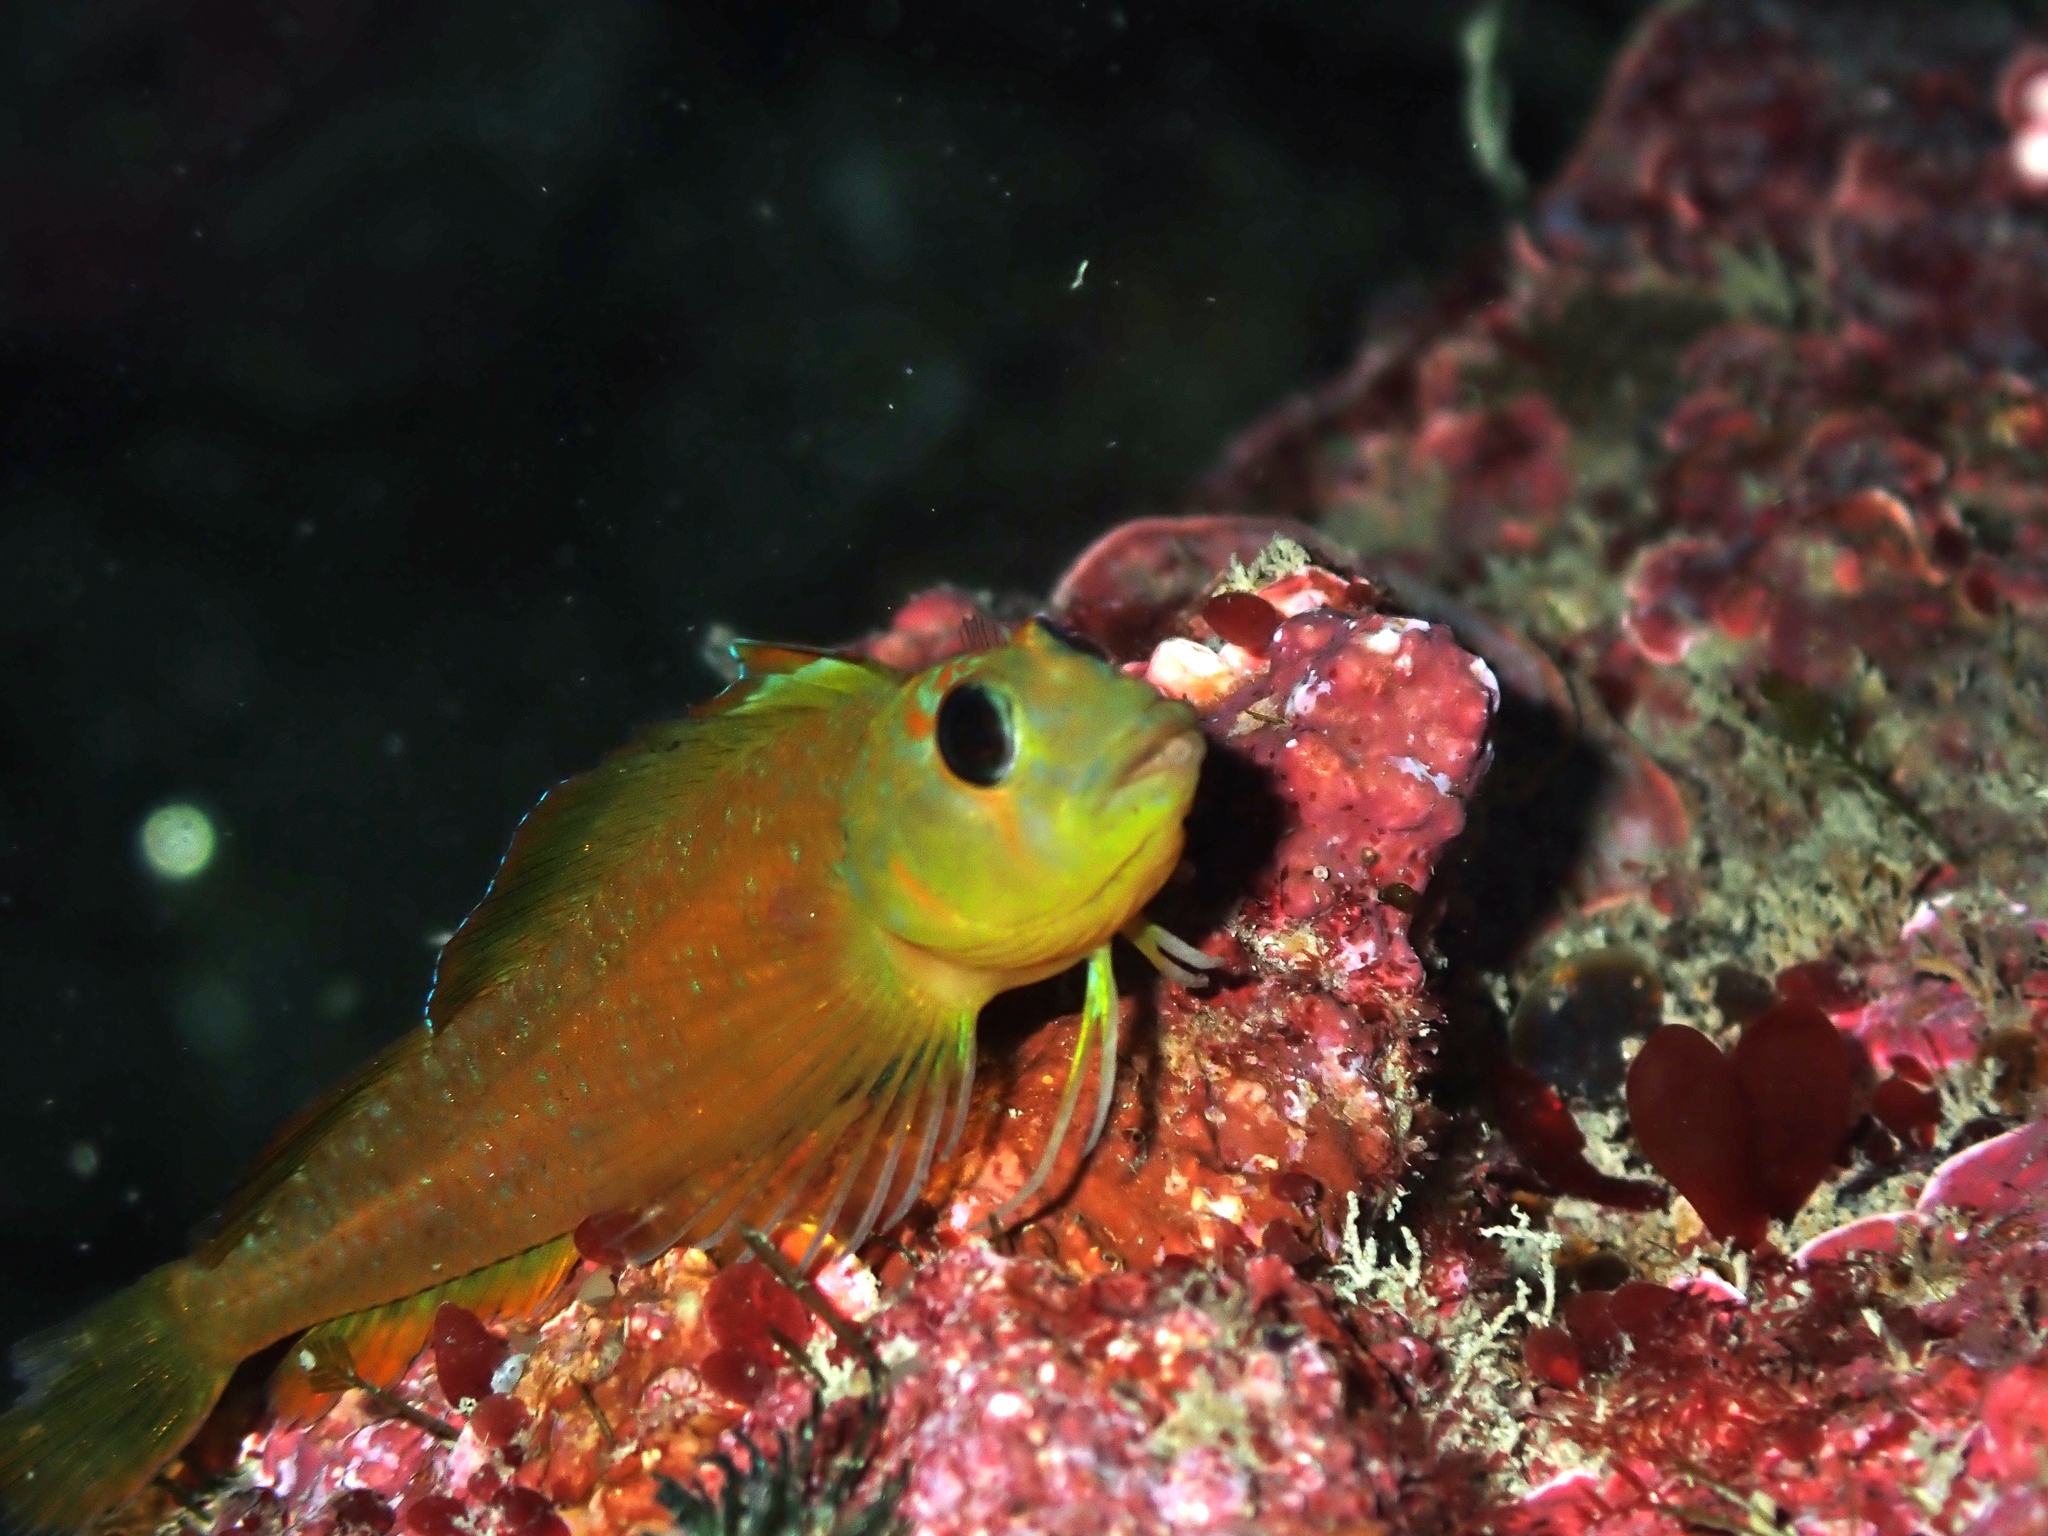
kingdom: Animalia
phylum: Chordata
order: Perciformes
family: Tripterygiidae
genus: Notoclinops
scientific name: Notoclinops yaldwyni
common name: Yaldwyn's triplefin
